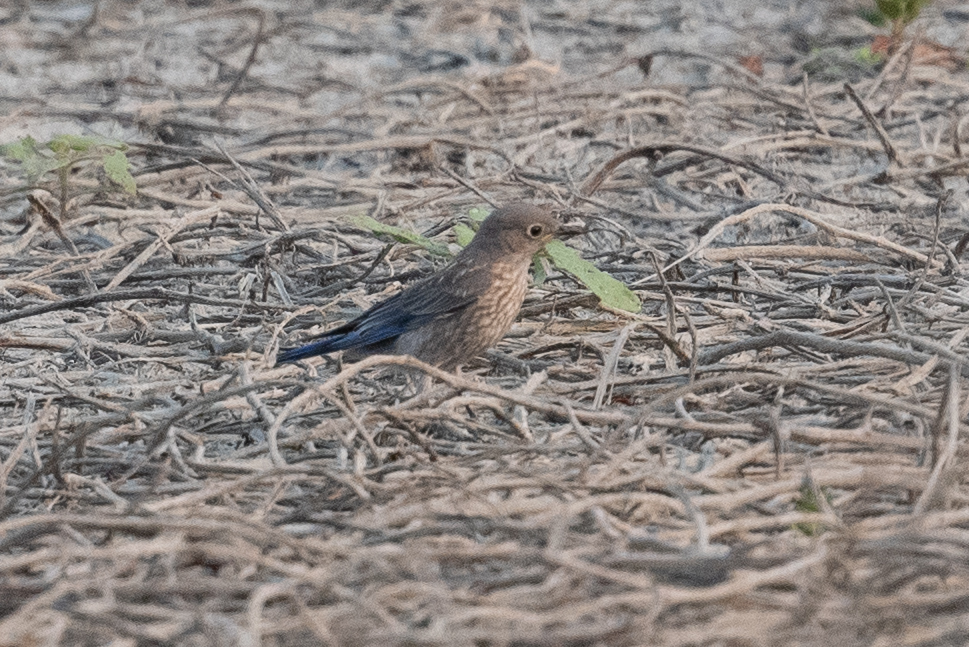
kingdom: Animalia
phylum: Chordata
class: Aves
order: Passeriformes
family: Turdidae
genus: Sialia
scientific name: Sialia mexicana
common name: Western bluebird
